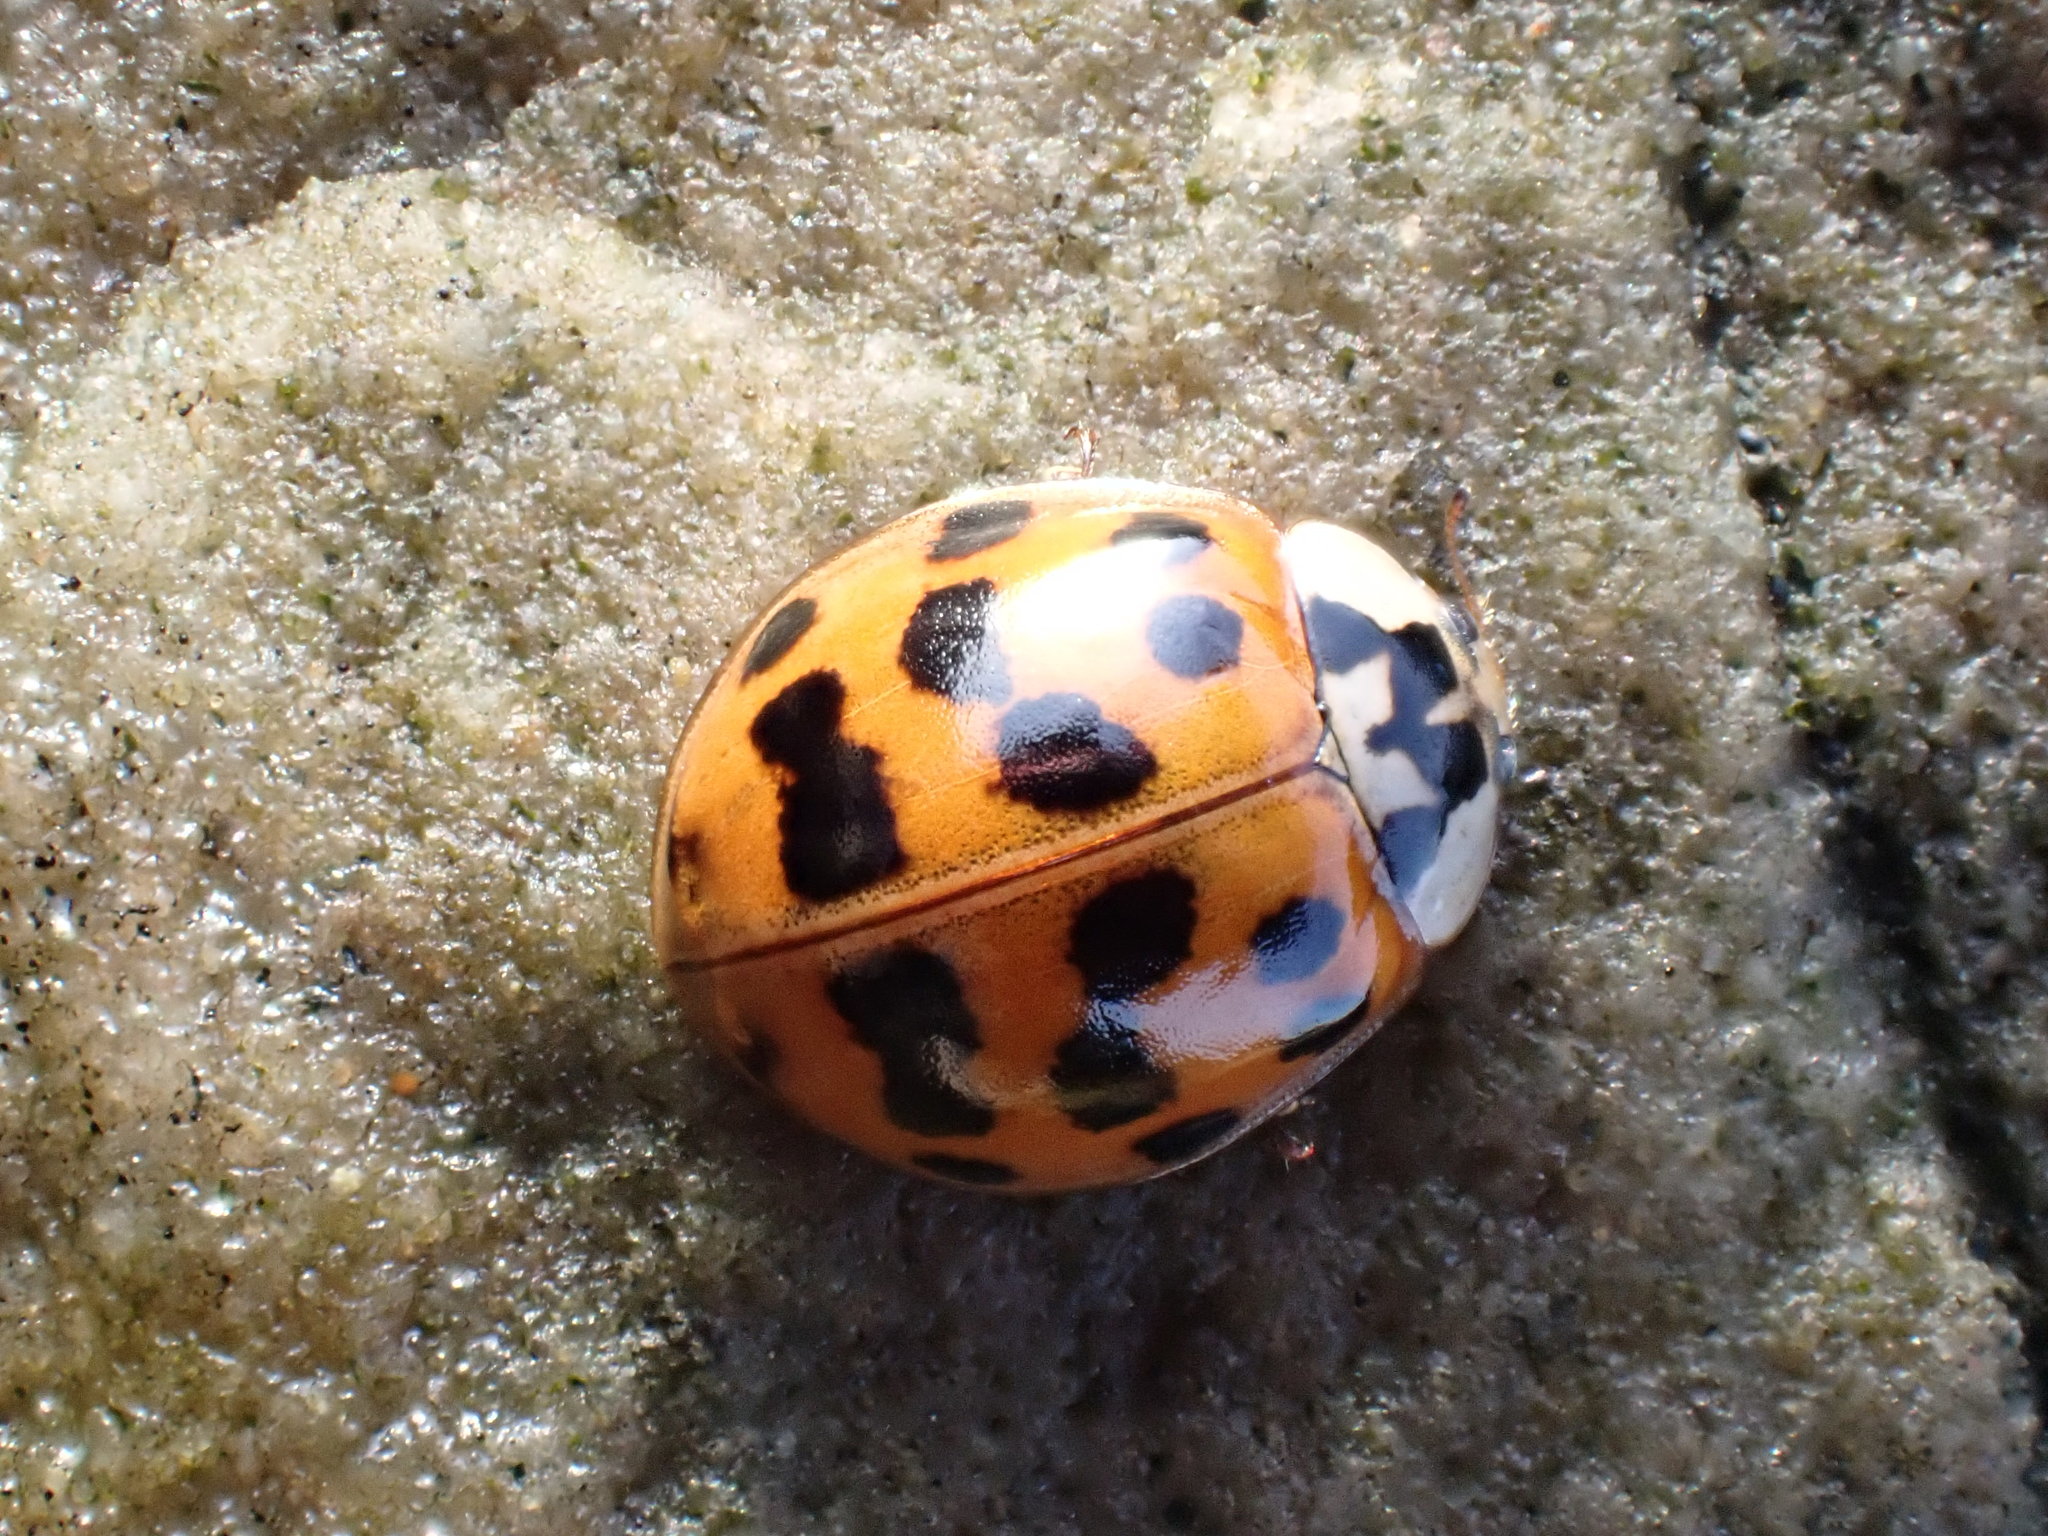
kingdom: Animalia
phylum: Arthropoda
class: Insecta
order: Coleoptera
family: Coccinellidae
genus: Harmonia
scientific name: Harmonia axyridis
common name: Harlequin ladybird
